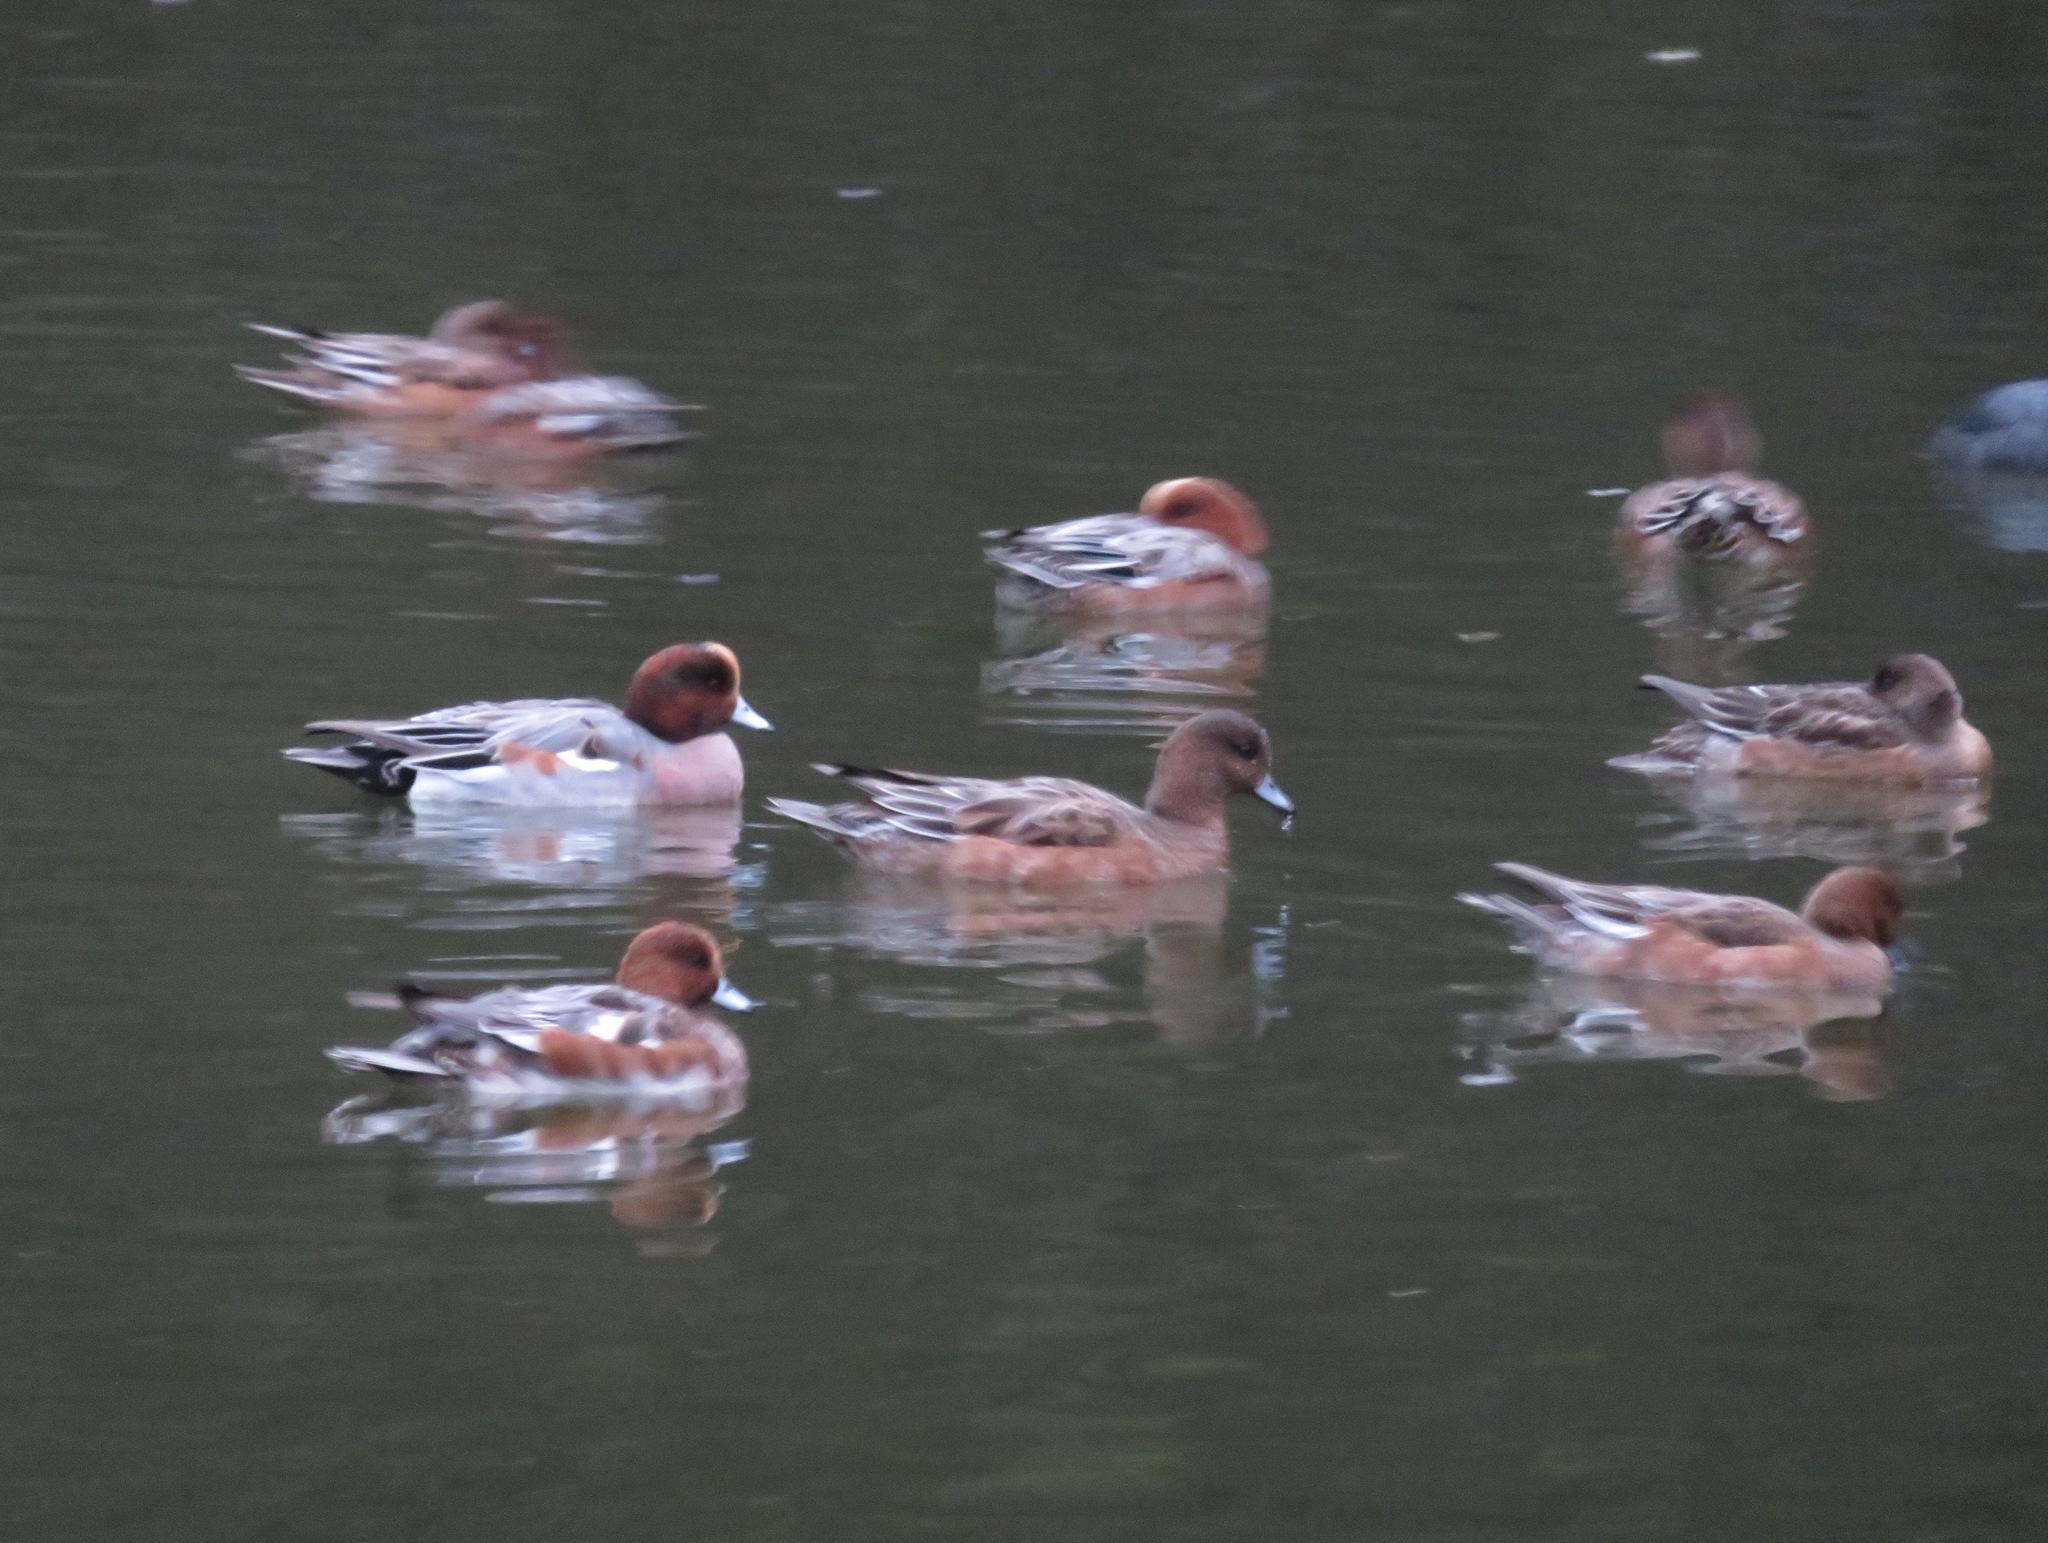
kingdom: Animalia
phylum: Chordata
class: Aves
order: Anseriformes
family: Anatidae
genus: Mareca
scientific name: Mareca penelope
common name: Eurasian wigeon
